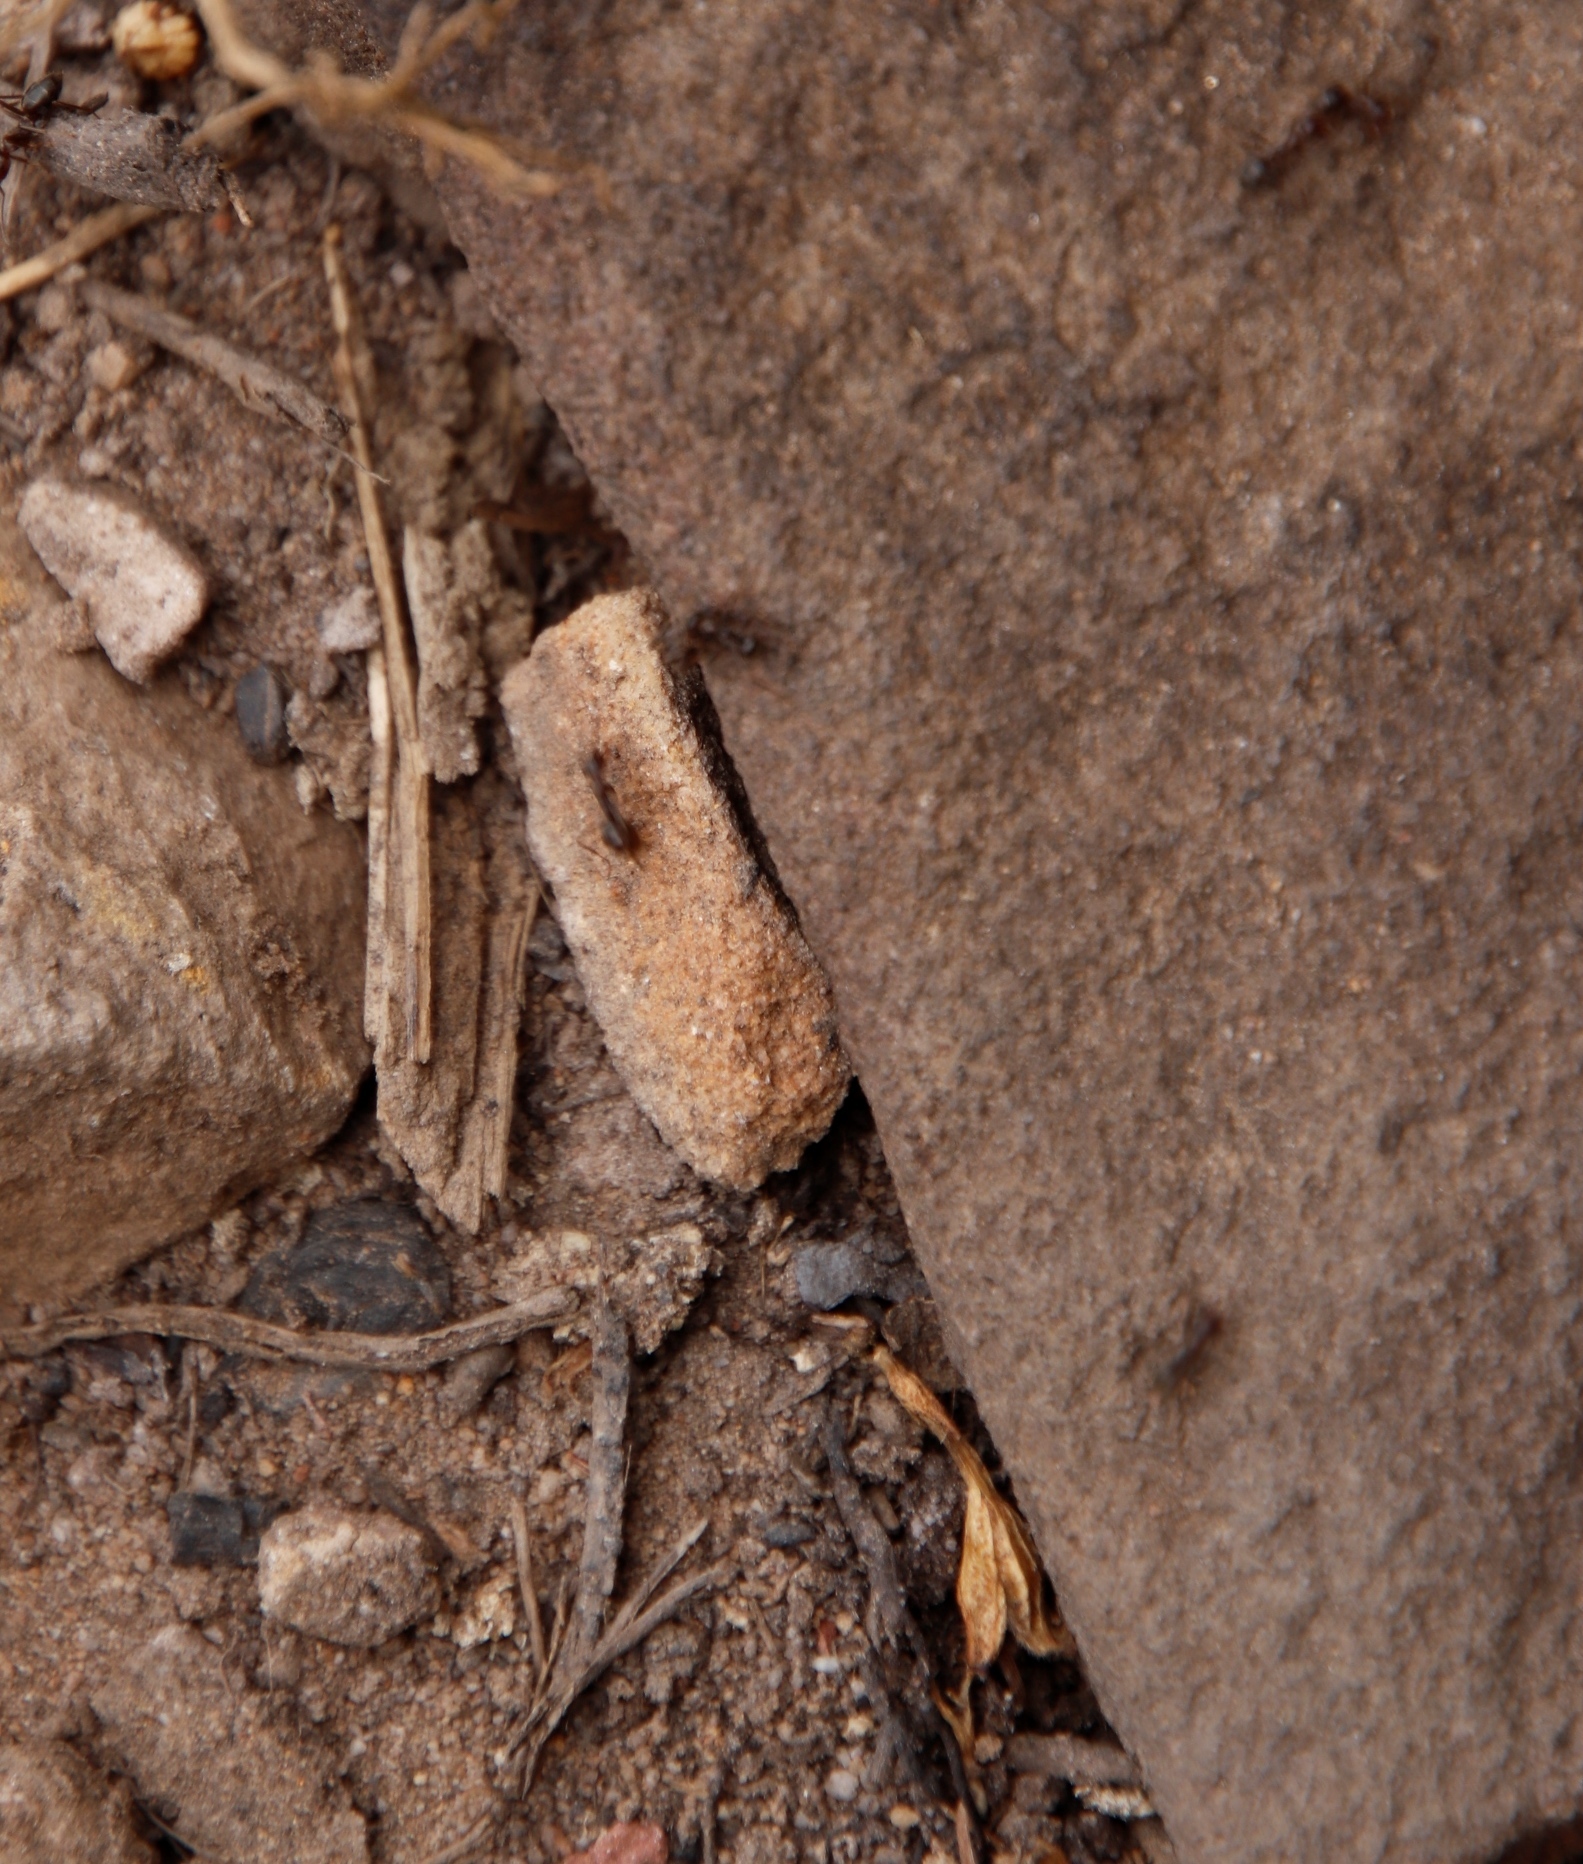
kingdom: Animalia
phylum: Arthropoda
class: Insecta
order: Hymenoptera
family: Formicidae
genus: Anoplolepis
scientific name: Anoplolepis steingroeveri
